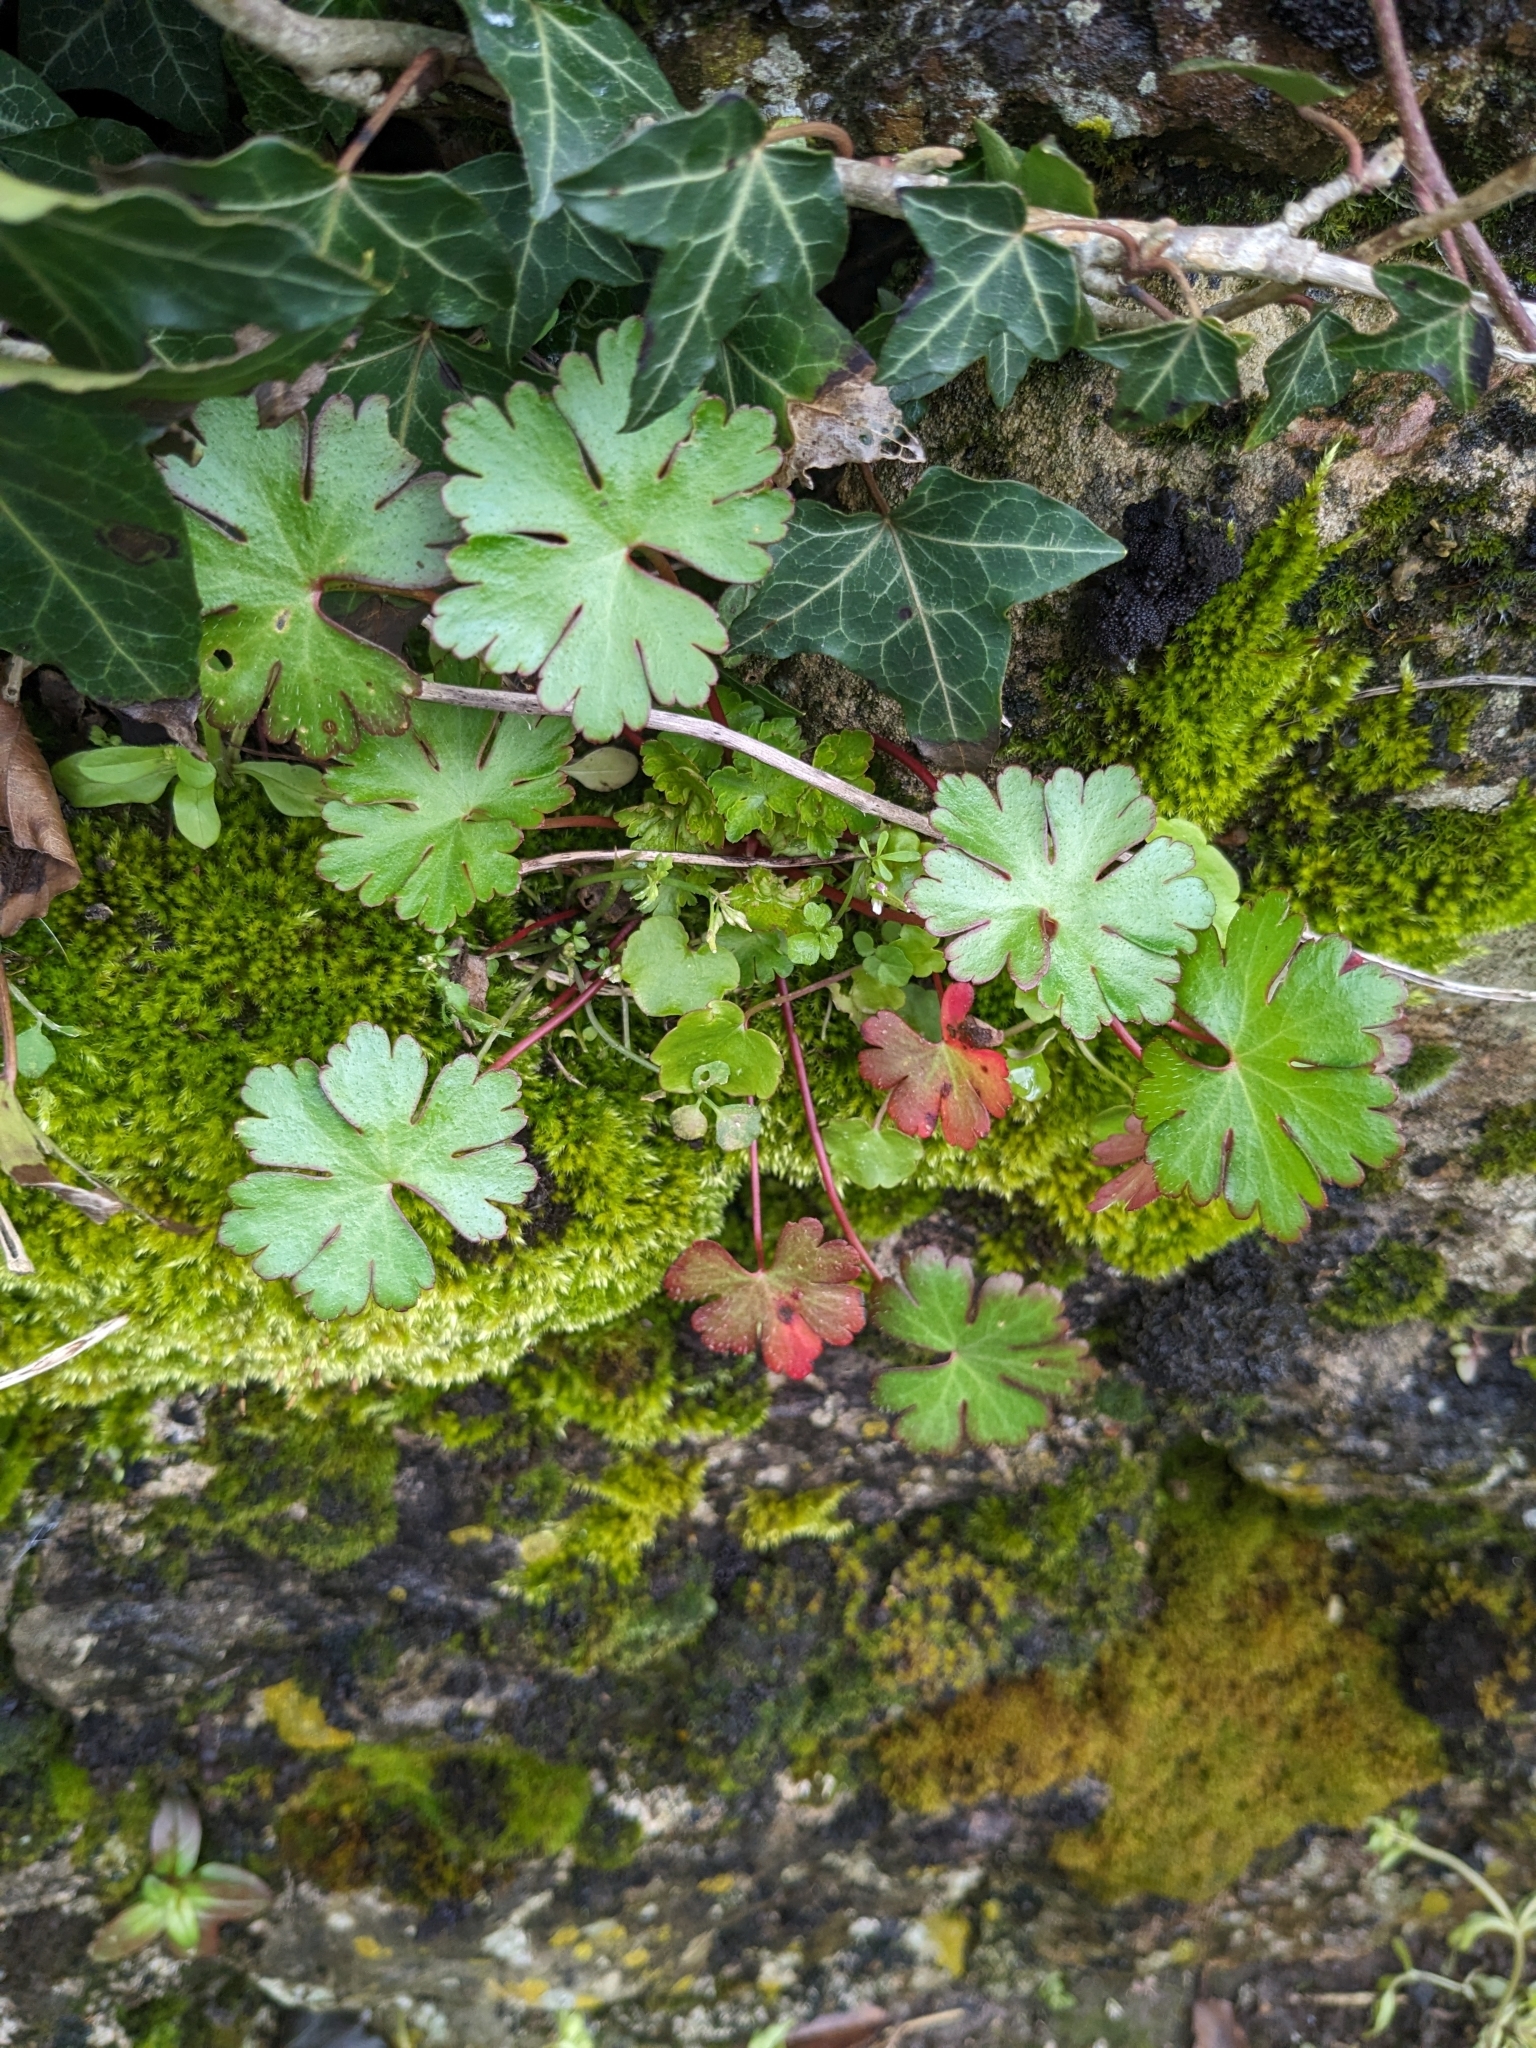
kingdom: Plantae
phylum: Tracheophyta
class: Magnoliopsida
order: Geraniales
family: Geraniaceae
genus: Geranium
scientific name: Geranium lucidum
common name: Shining crane's-bill
